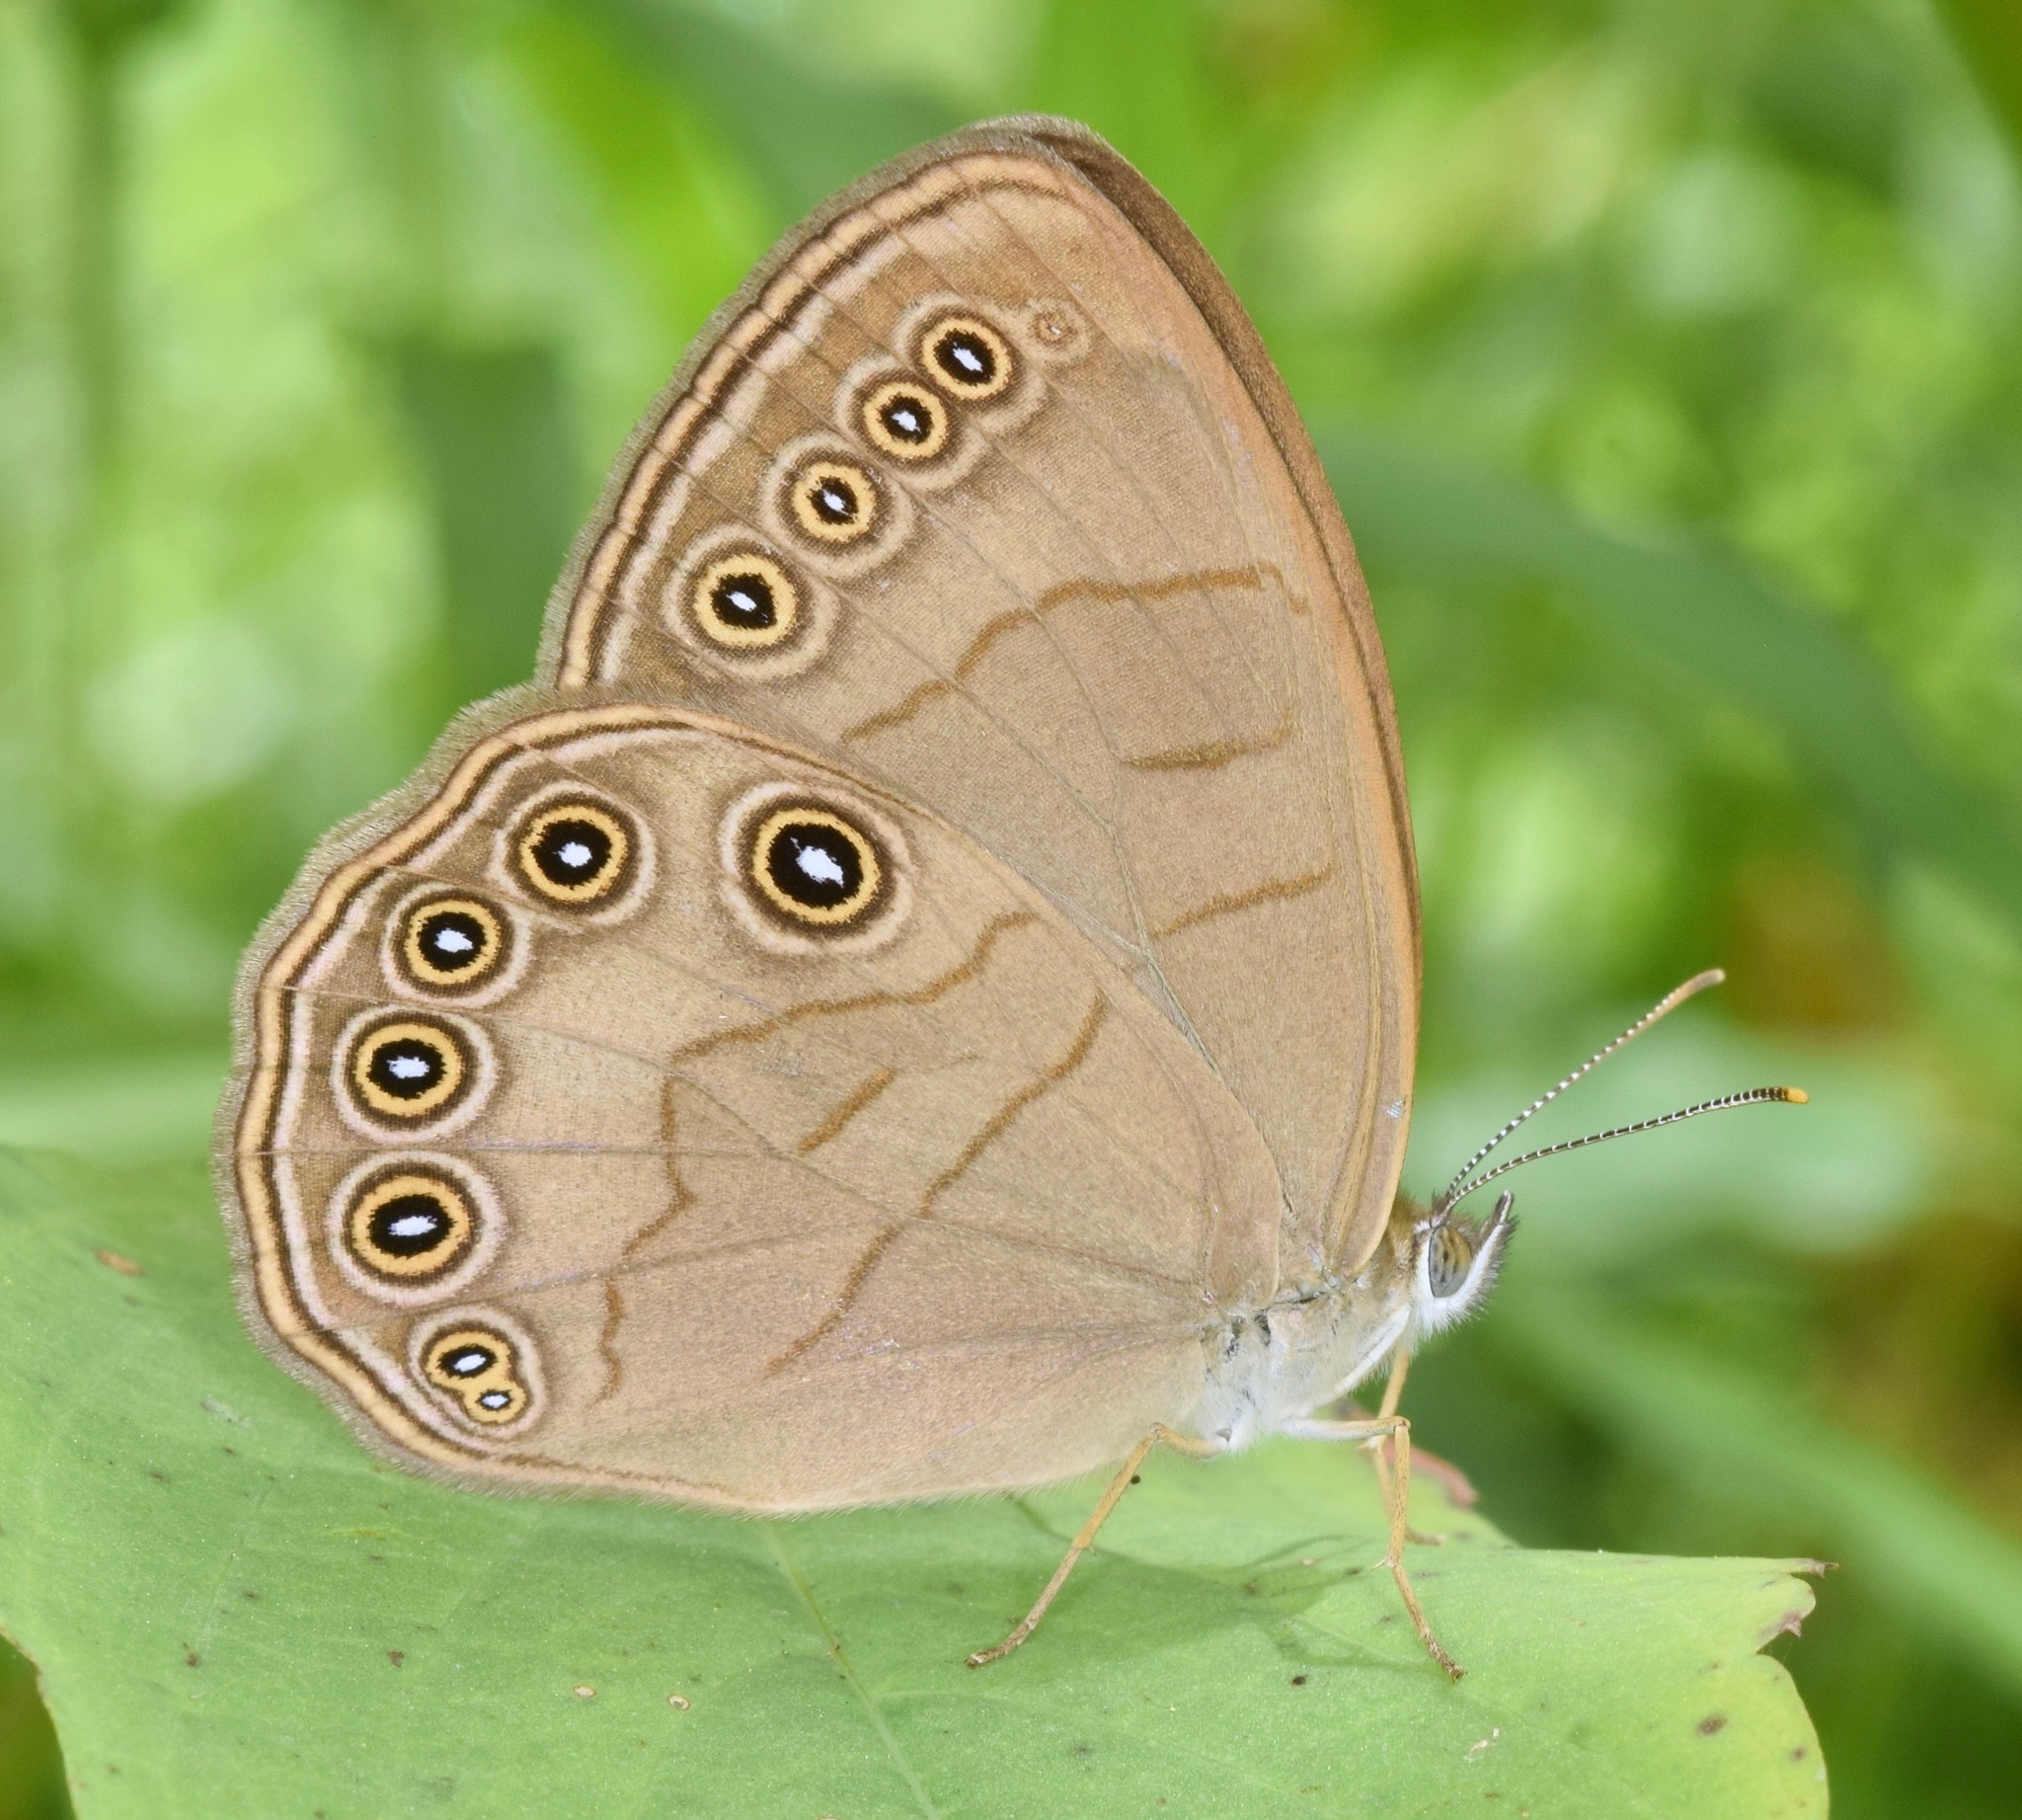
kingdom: Animalia
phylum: Arthropoda
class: Insecta
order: Lepidoptera
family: Nymphalidae
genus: Lethe
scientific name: Lethe eurydice
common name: Eyed brown
